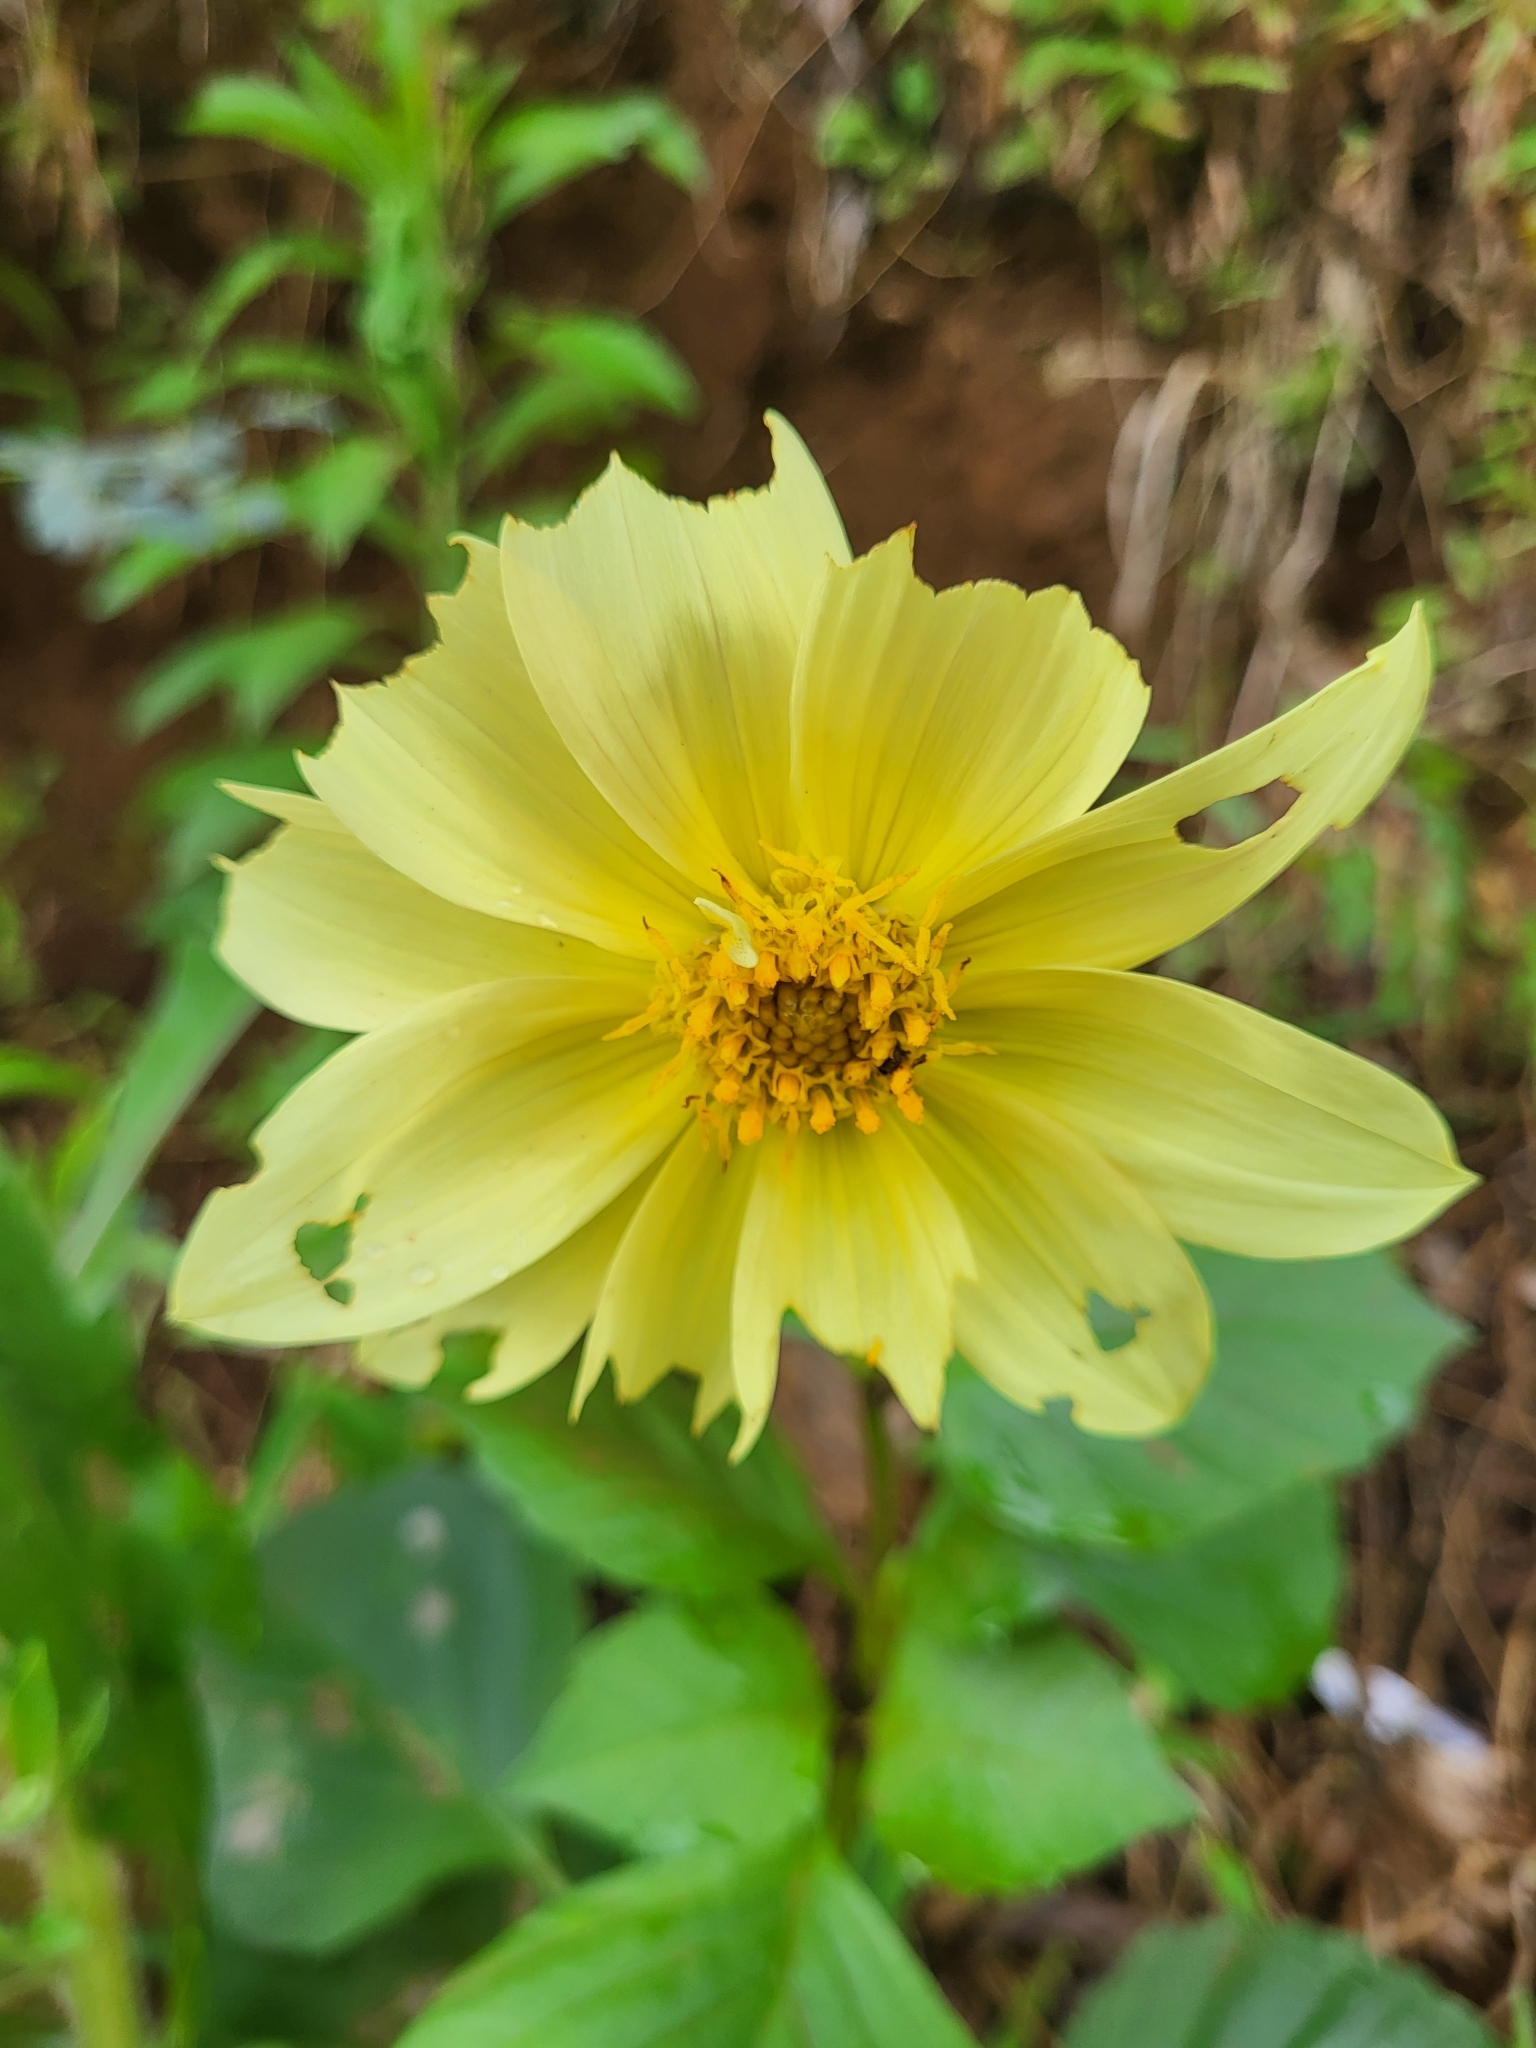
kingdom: Plantae
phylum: Tracheophyta
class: Magnoliopsida
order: Asterales
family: Asteraceae
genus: Dahlia
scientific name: Dahlia pinnata
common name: Dahlia
